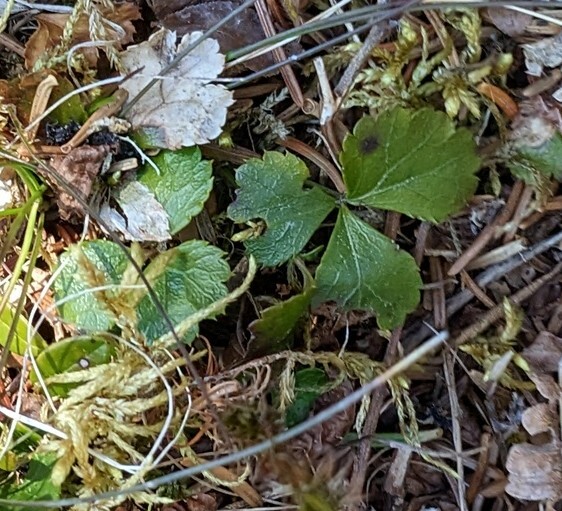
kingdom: Plantae
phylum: Tracheophyta
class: Magnoliopsida
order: Ranunculales
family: Ranunculaceae
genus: Coptis
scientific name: Coptis trifolia
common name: Canker-root
